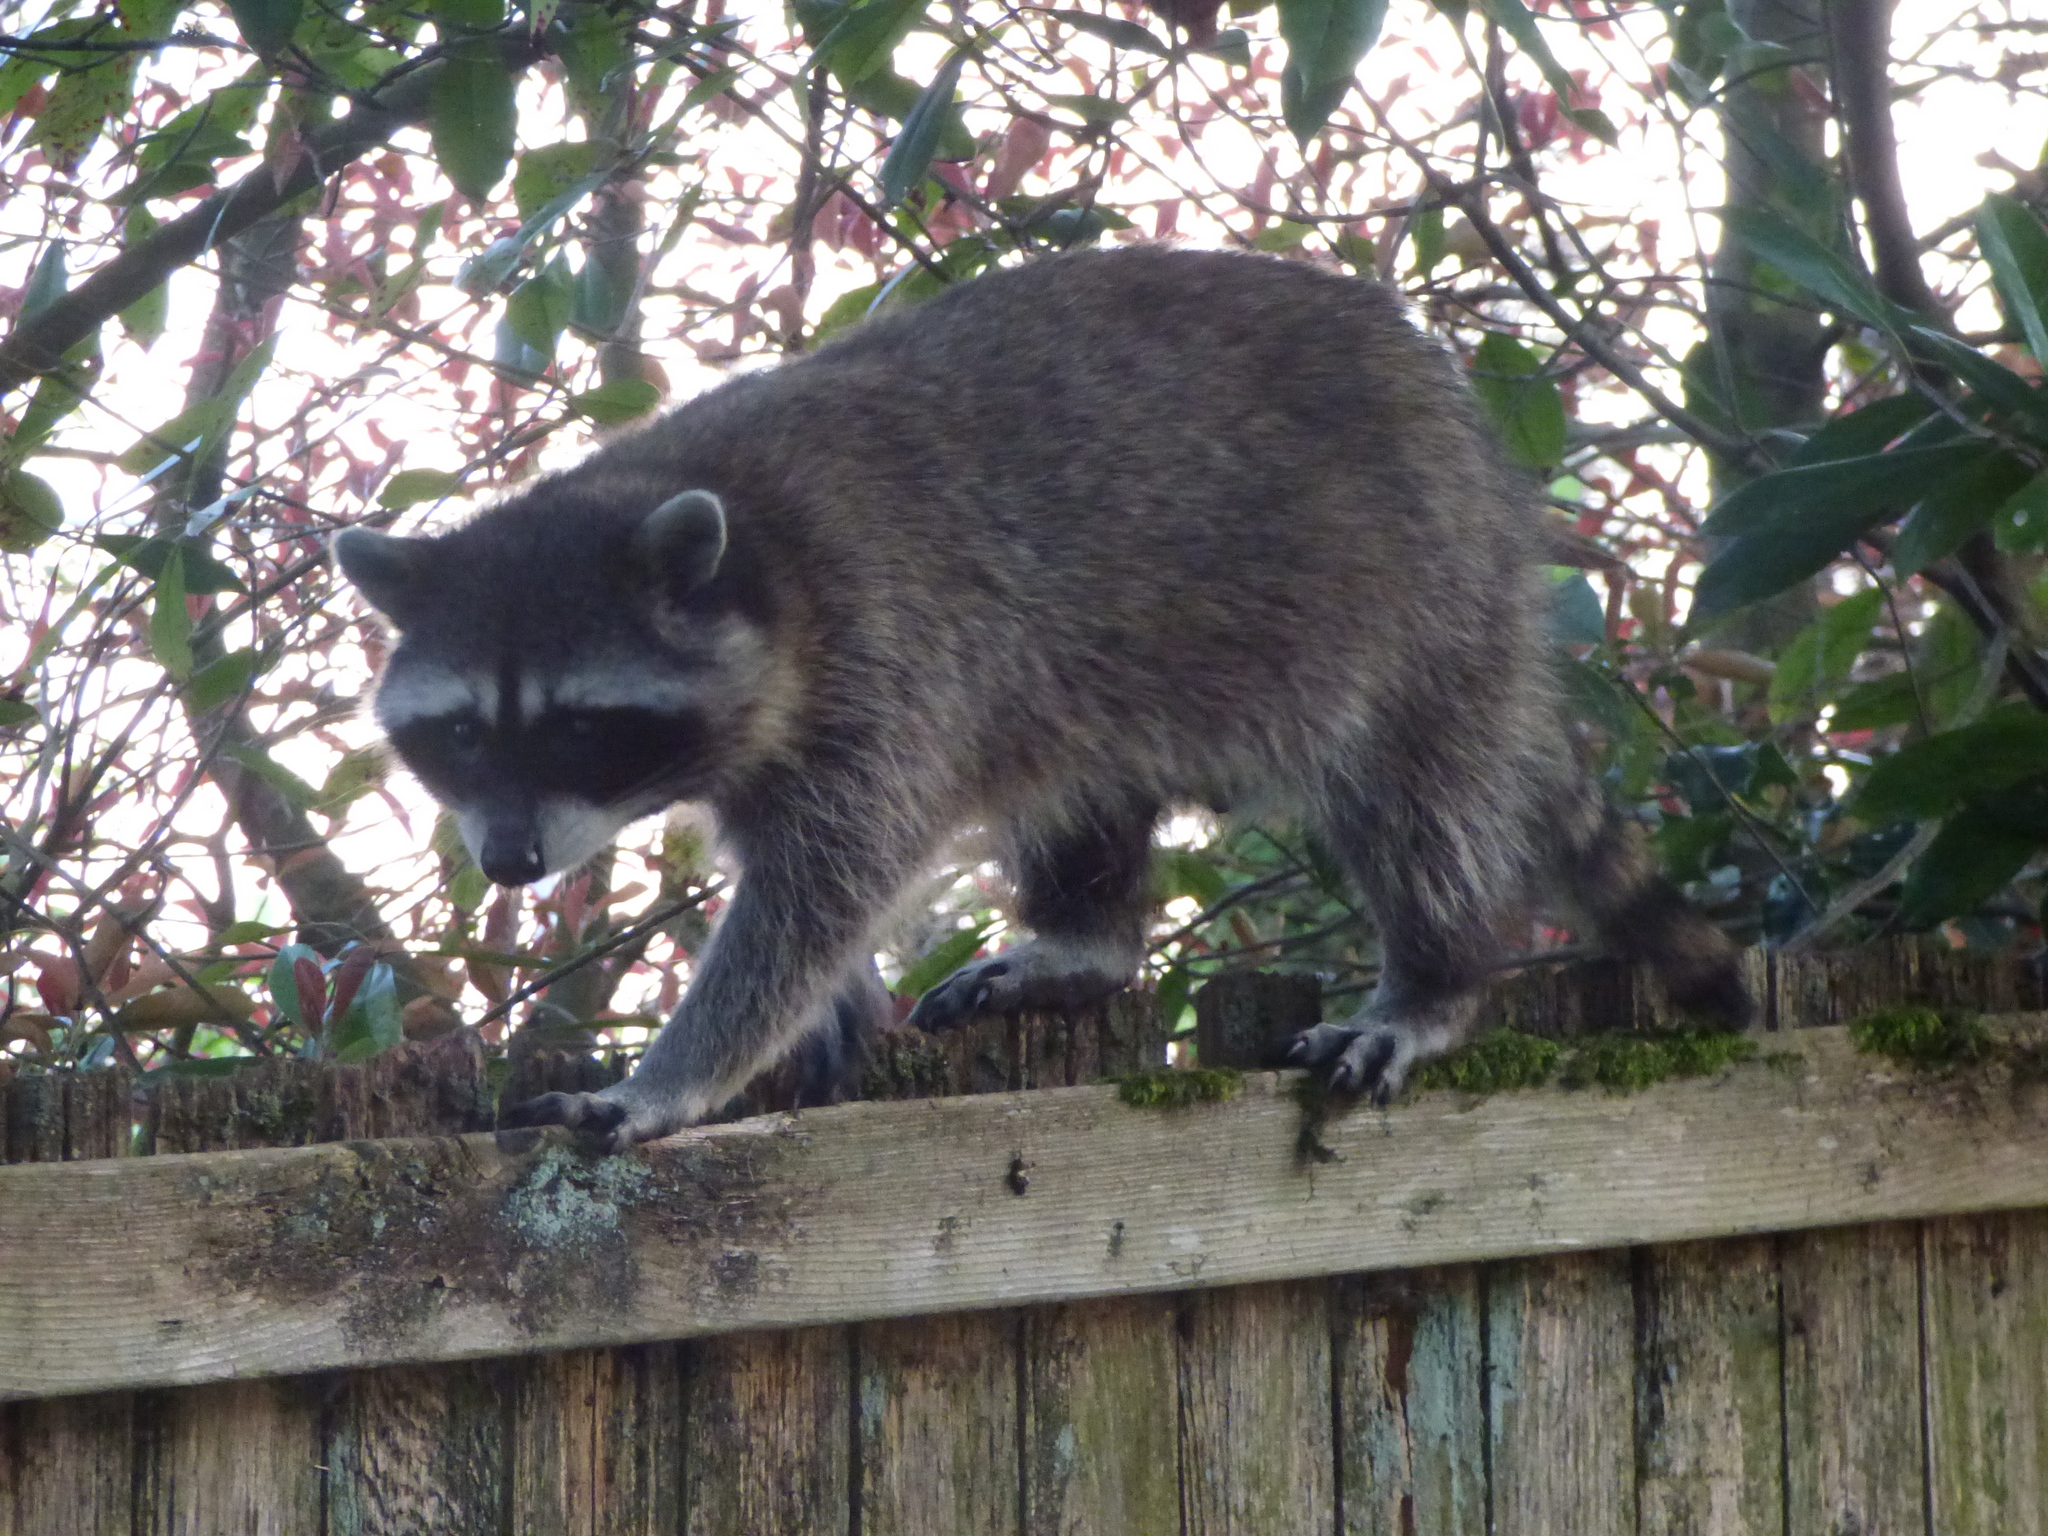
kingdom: Animalia
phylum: Chordata
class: Mammalia
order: Carnivora
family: Procyonidae
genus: Procyon
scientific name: Procyon lotor
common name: Raccoon
